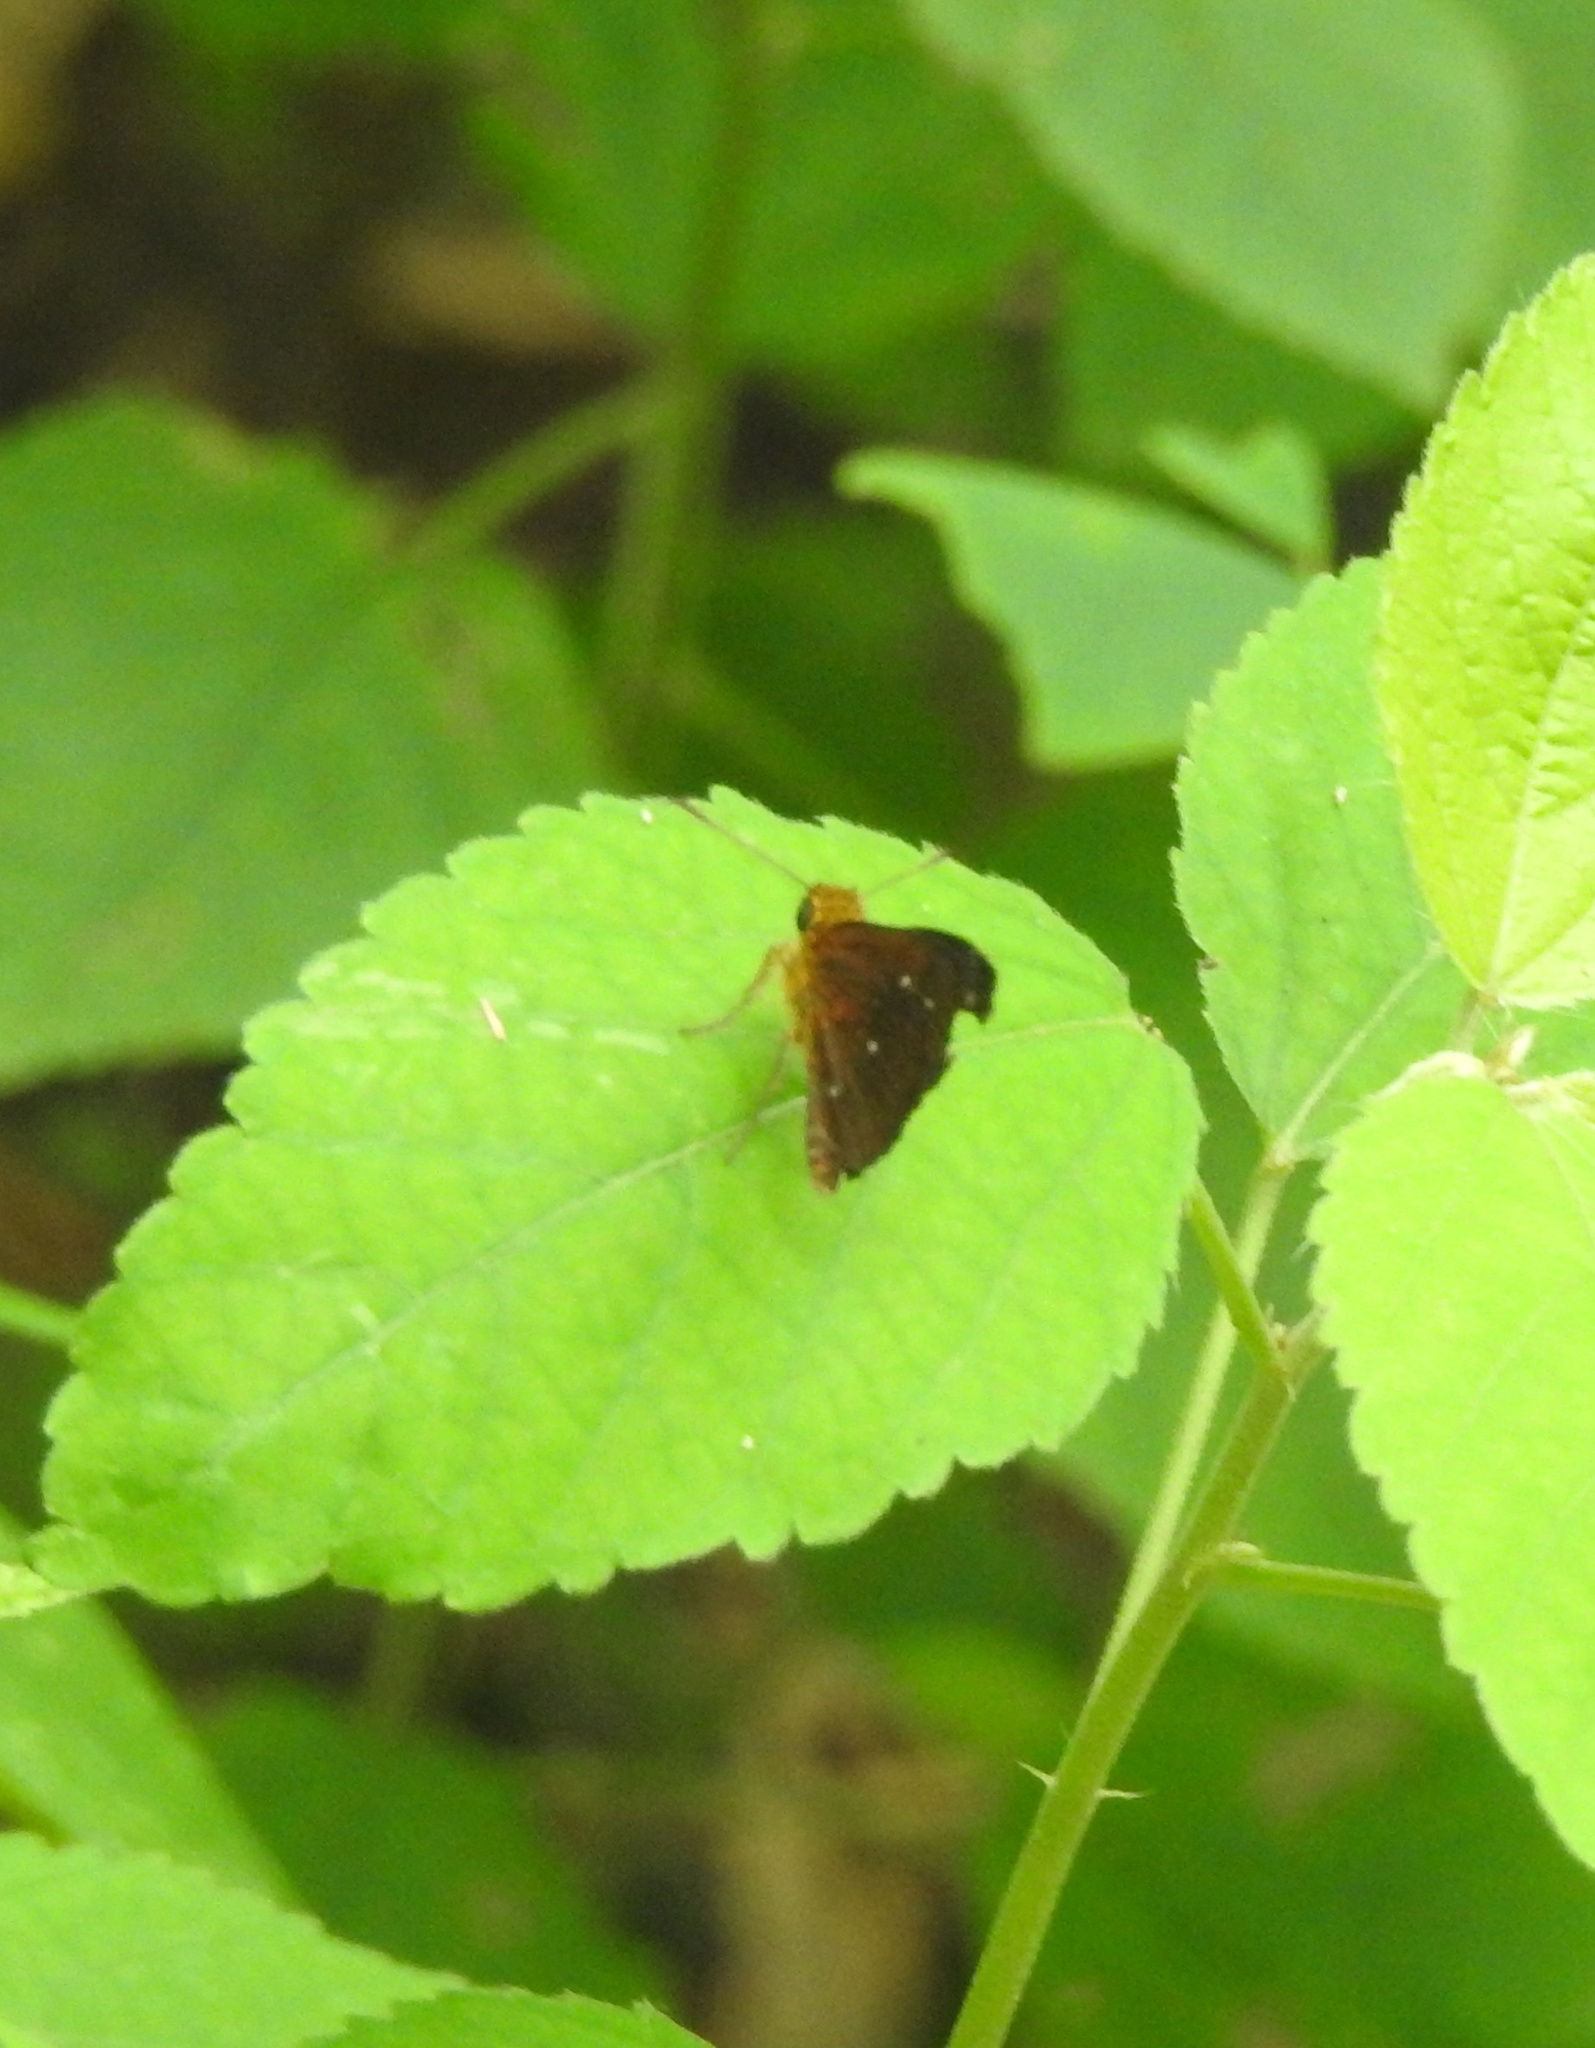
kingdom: Animalia
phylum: Arthropoda
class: Insecta
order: Lepidoptera
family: Hesperiidae
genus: Iambrix
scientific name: Iambrix salsala
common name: Chestnut bob
